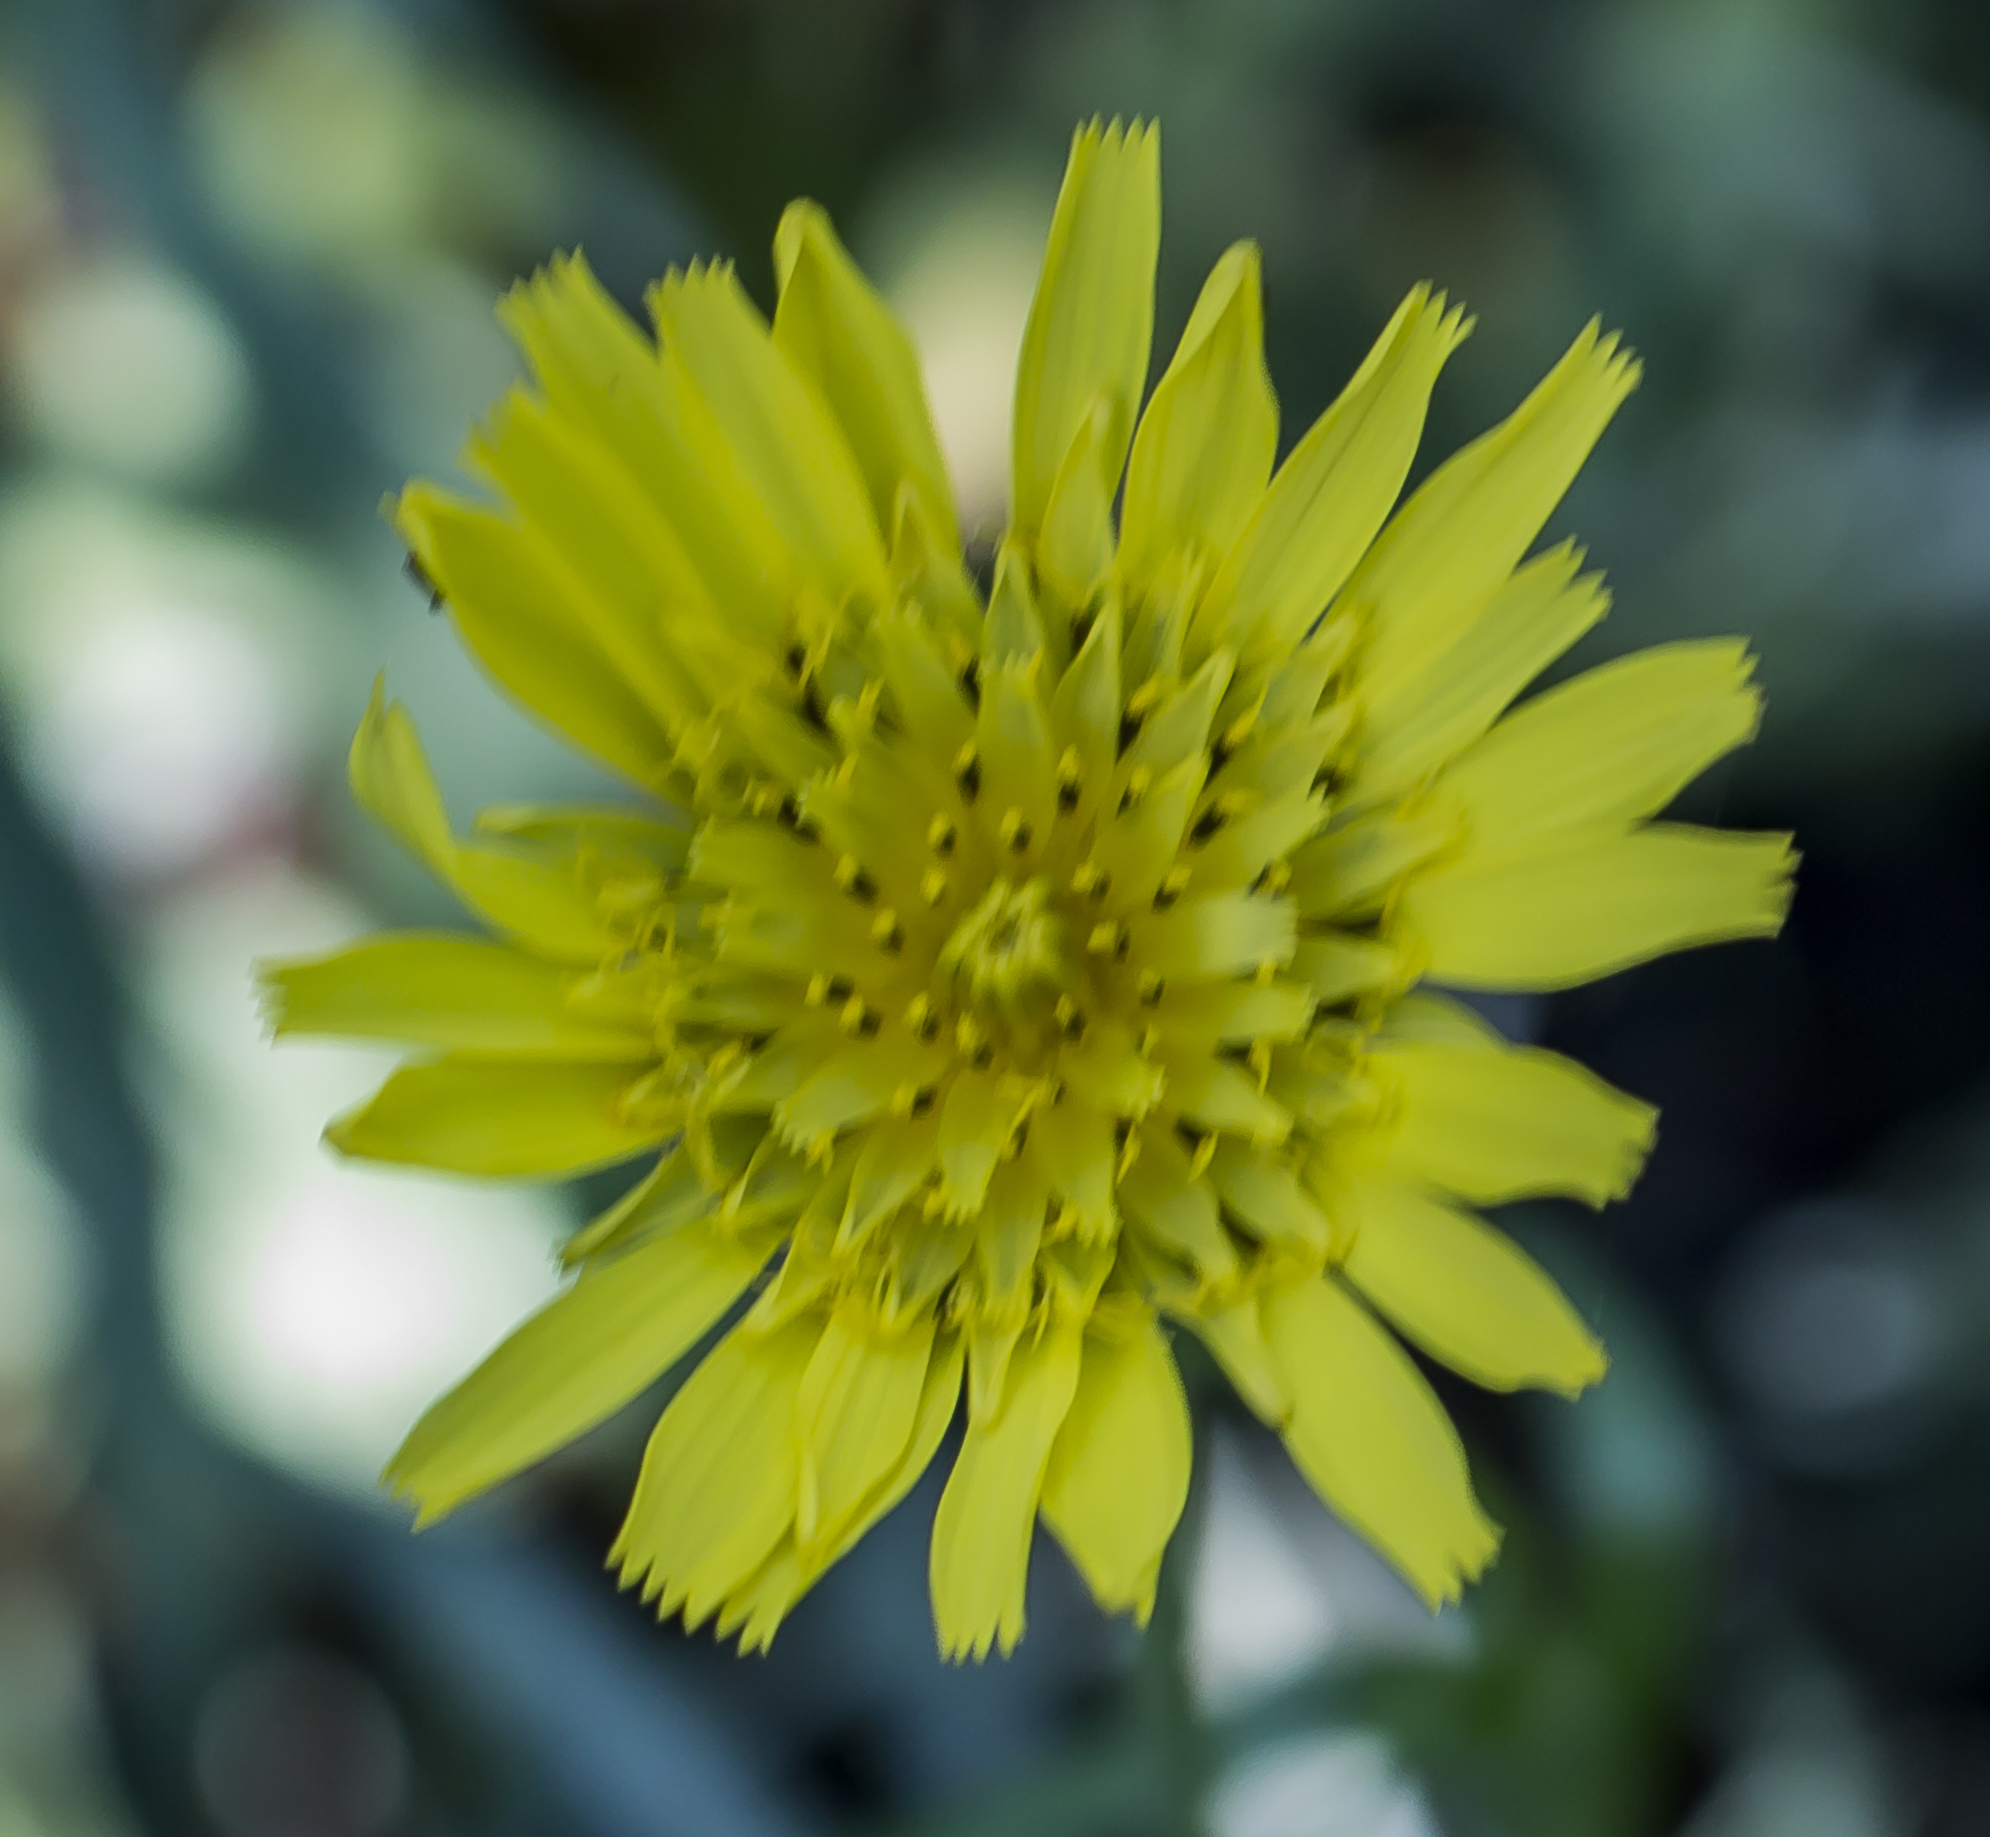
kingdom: Plantae
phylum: Tracheophyta
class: Magnoliopsida
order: Asterales
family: Asteraceae
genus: Tragopogon
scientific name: Tragopogon pratensis
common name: Goat's-beard
